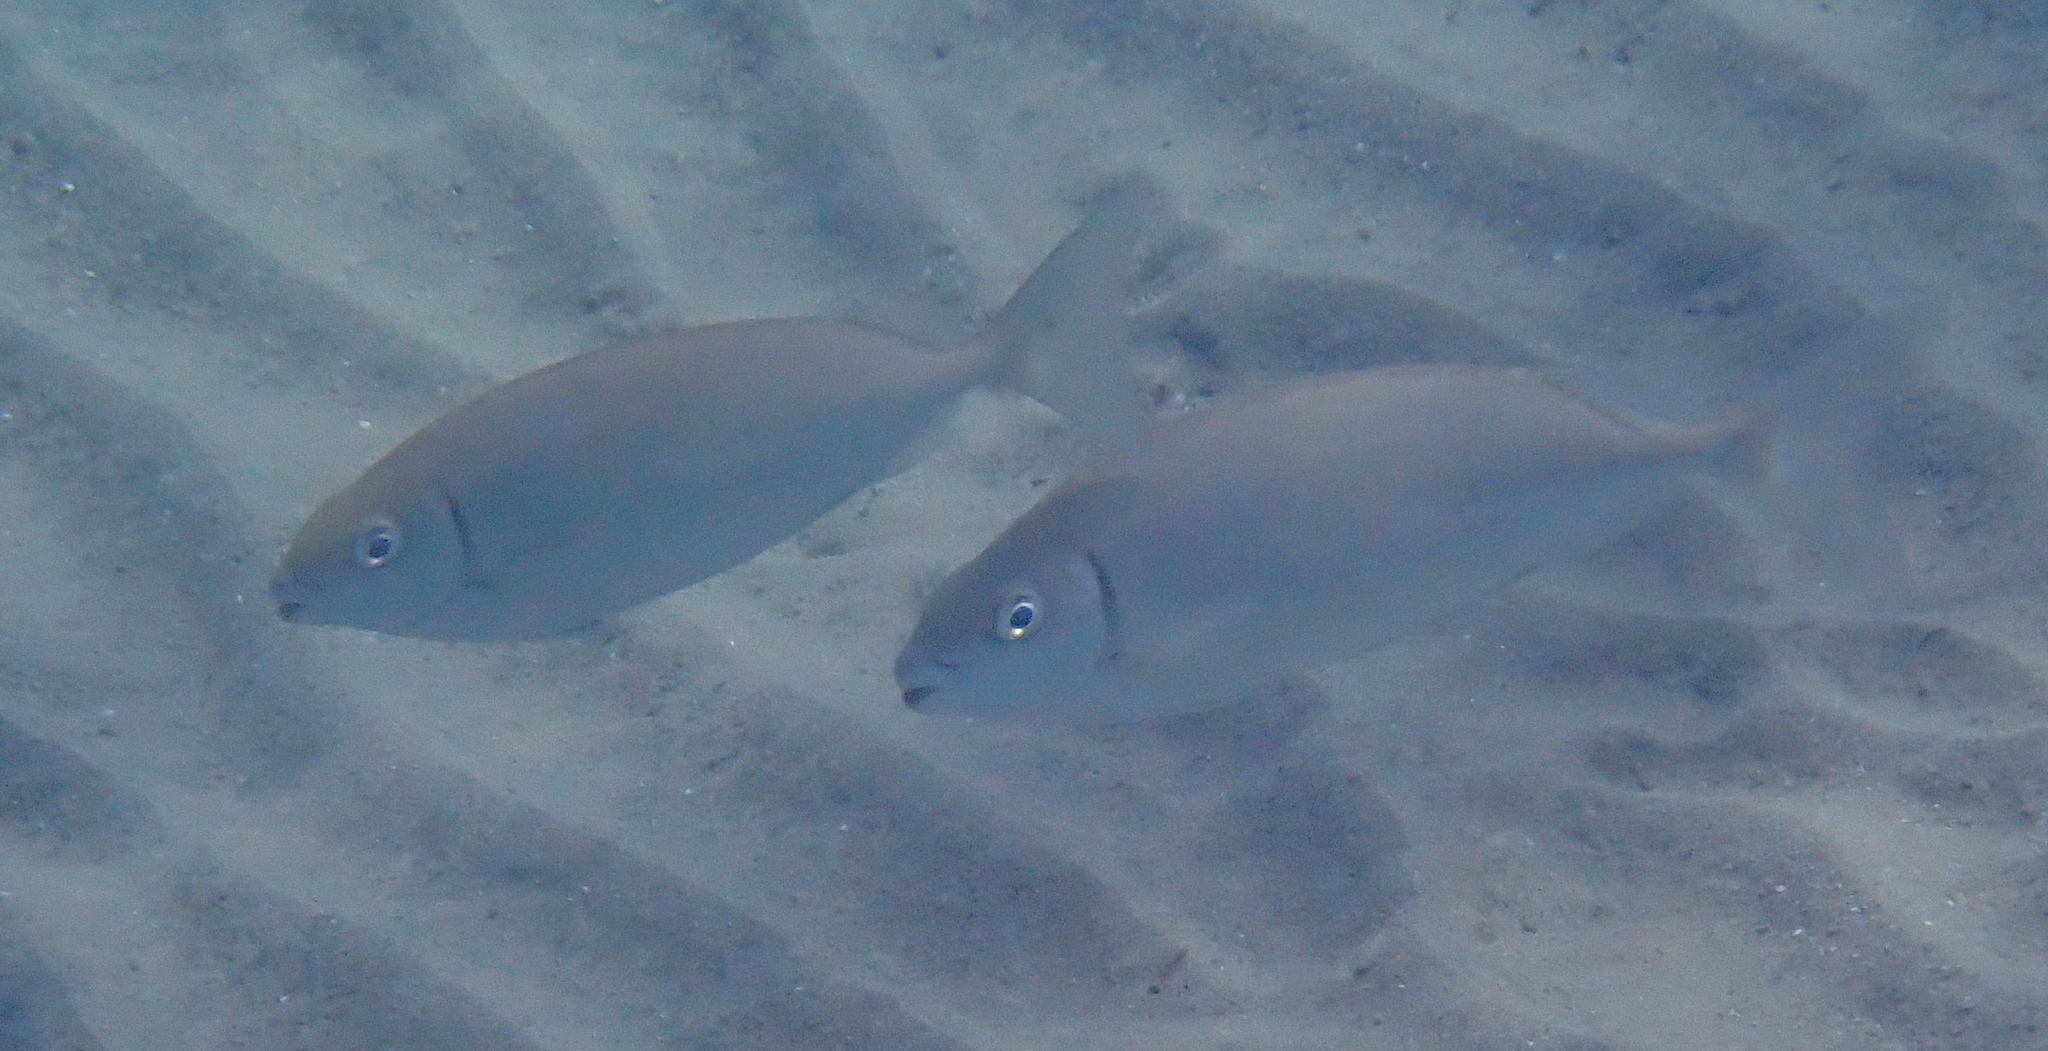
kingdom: Animalia
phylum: Chordata
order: Perciformes
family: Siganidae
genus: Siganus
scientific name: Siganus rivulatus
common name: Marbled spinefoot
